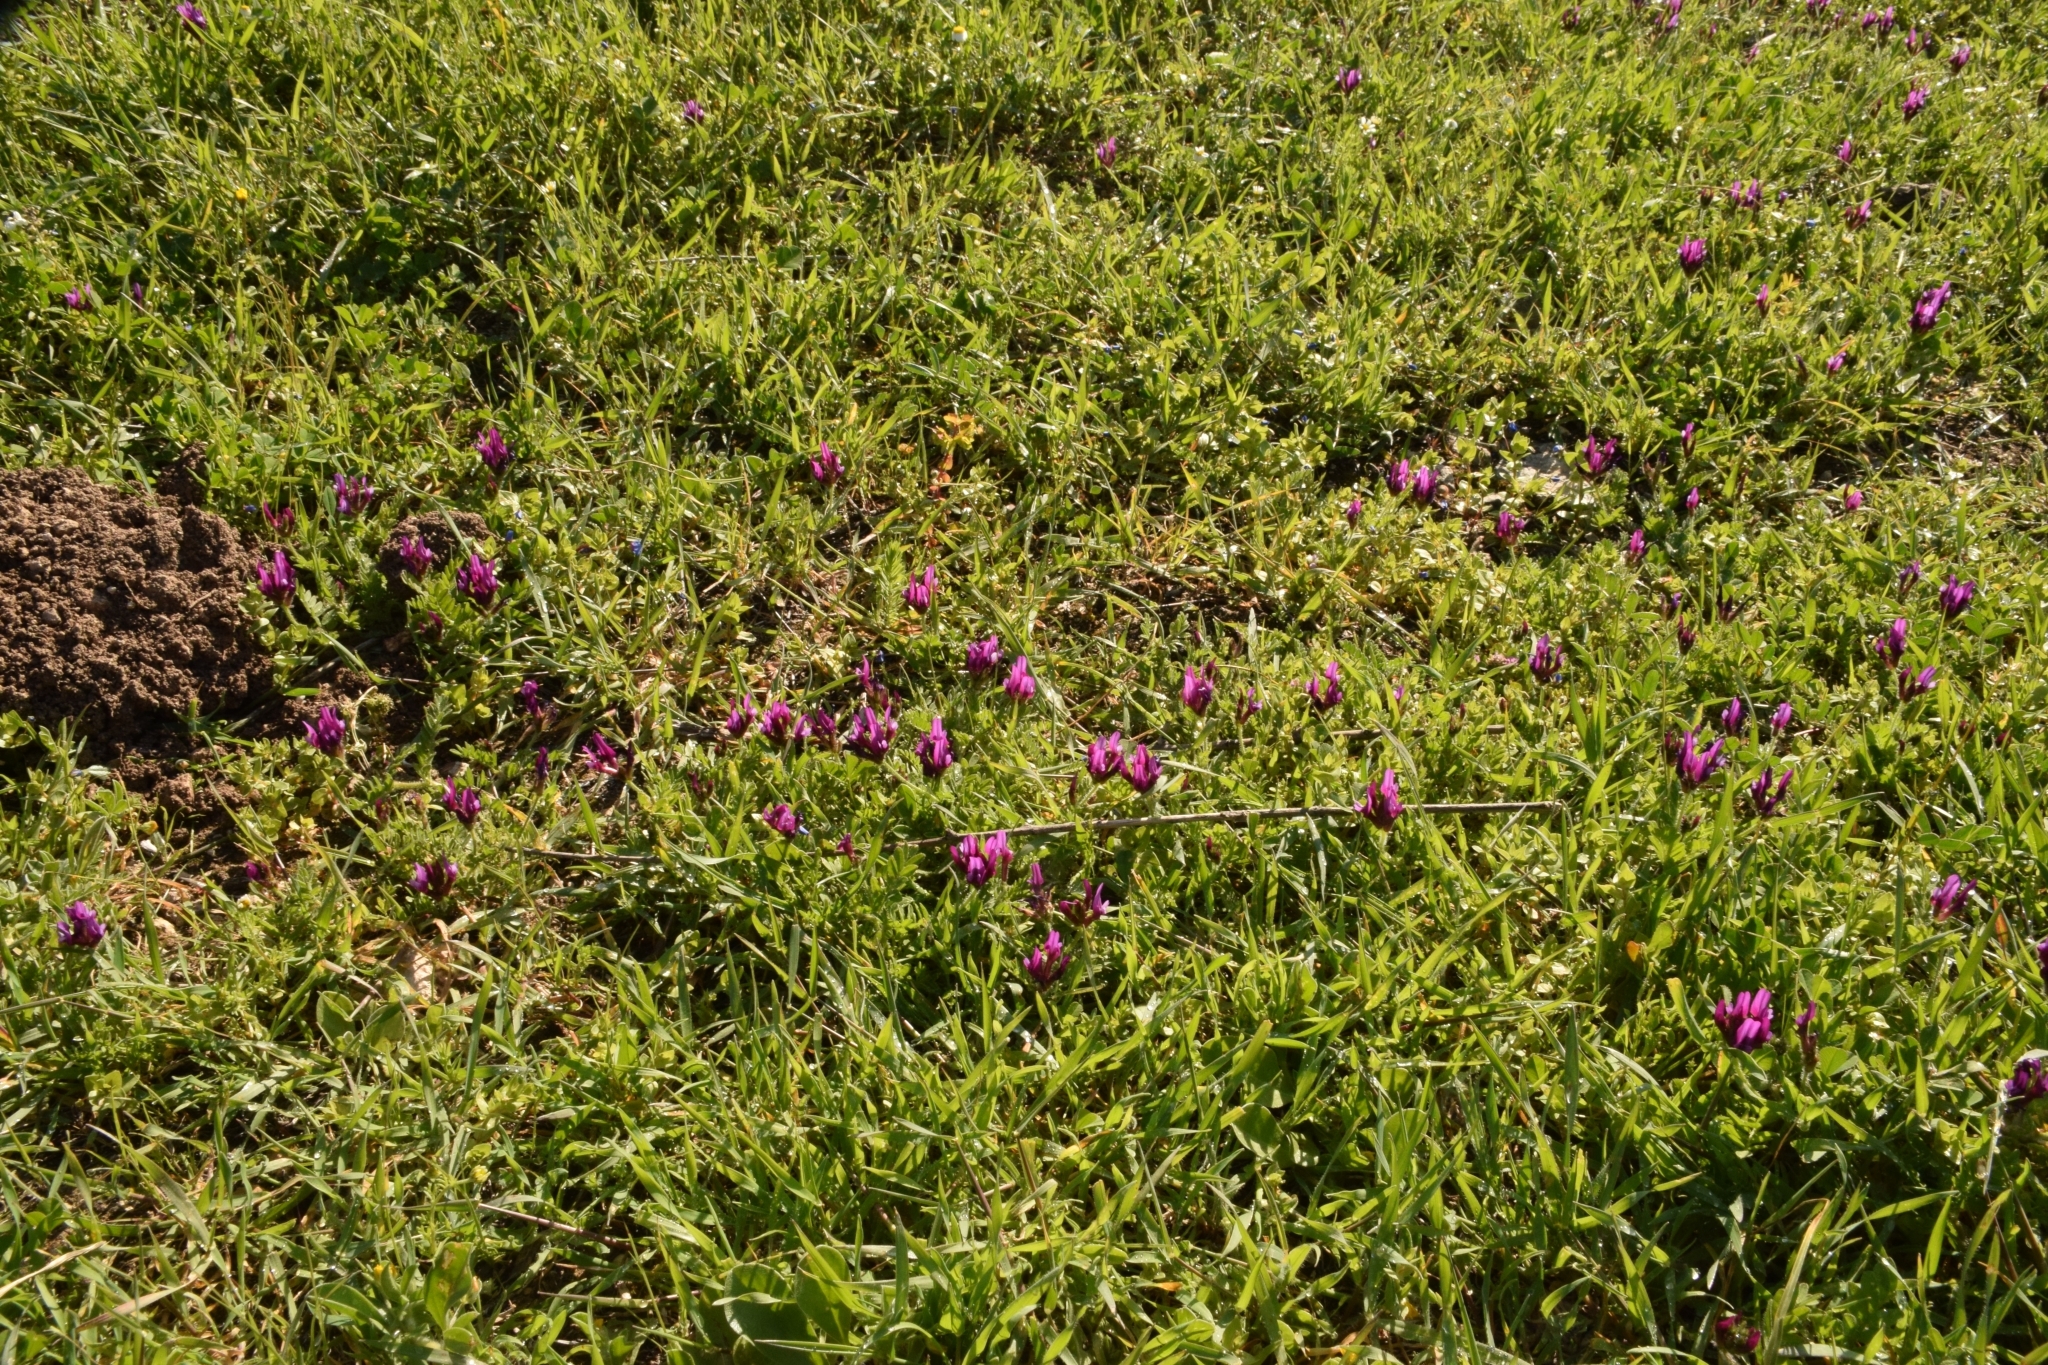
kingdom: Plantae
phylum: Tracheophyta
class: Magnoliopsida
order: Fabales
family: Fabaceae
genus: Astragalus
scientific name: Astragalus callichrous
